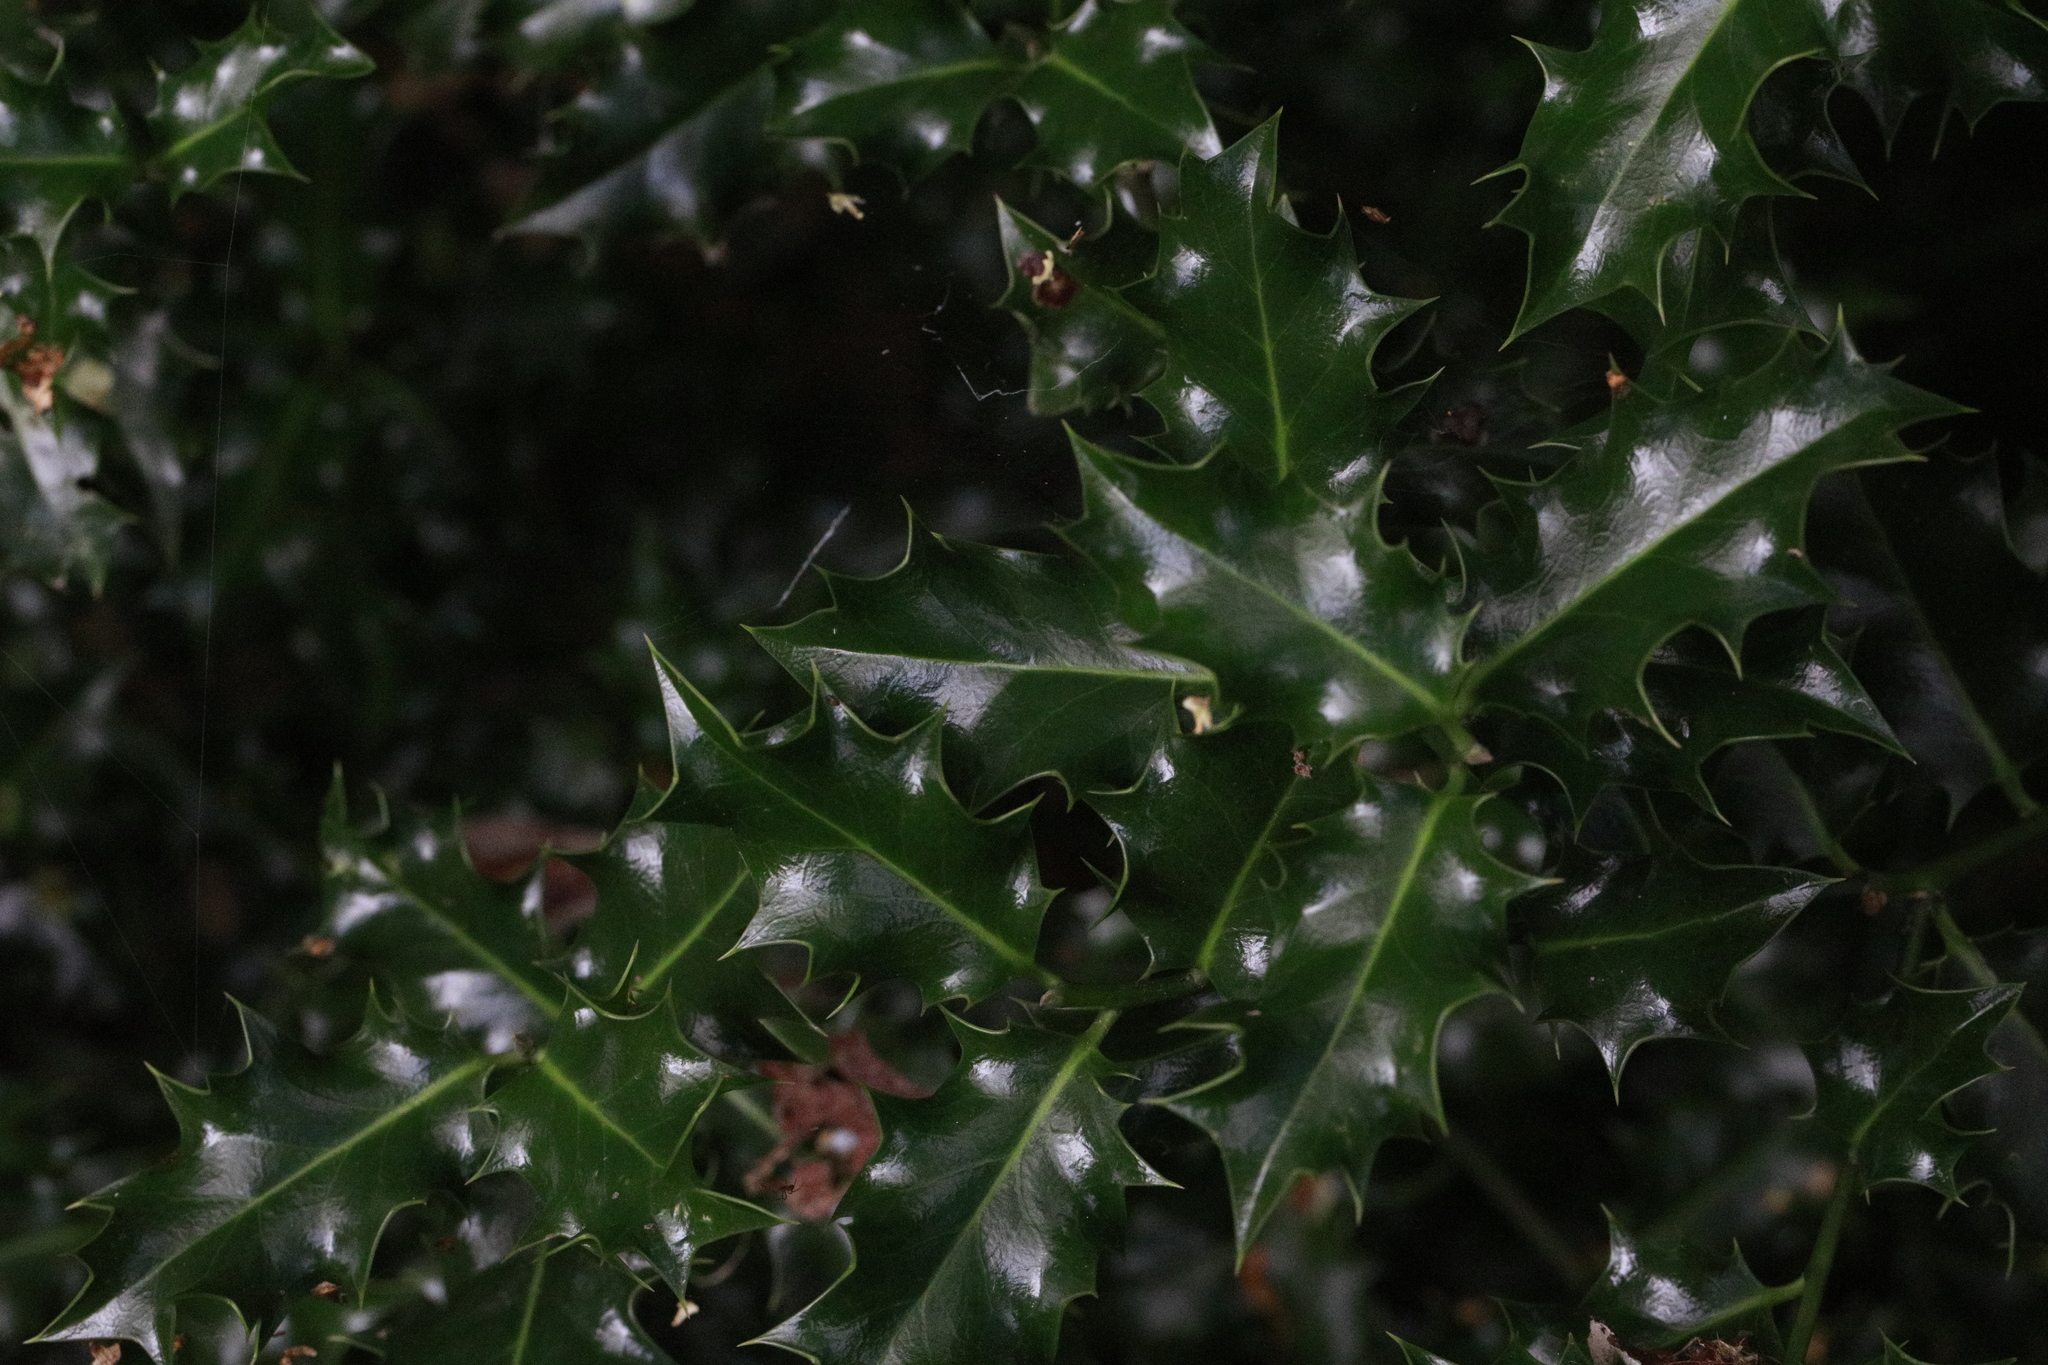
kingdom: Plantae
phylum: Tracheophyta
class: Magnoliopsida
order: Aquifoliales
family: Aquifoliaceae
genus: Ilex
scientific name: Ilex aquifolium
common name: English holly
